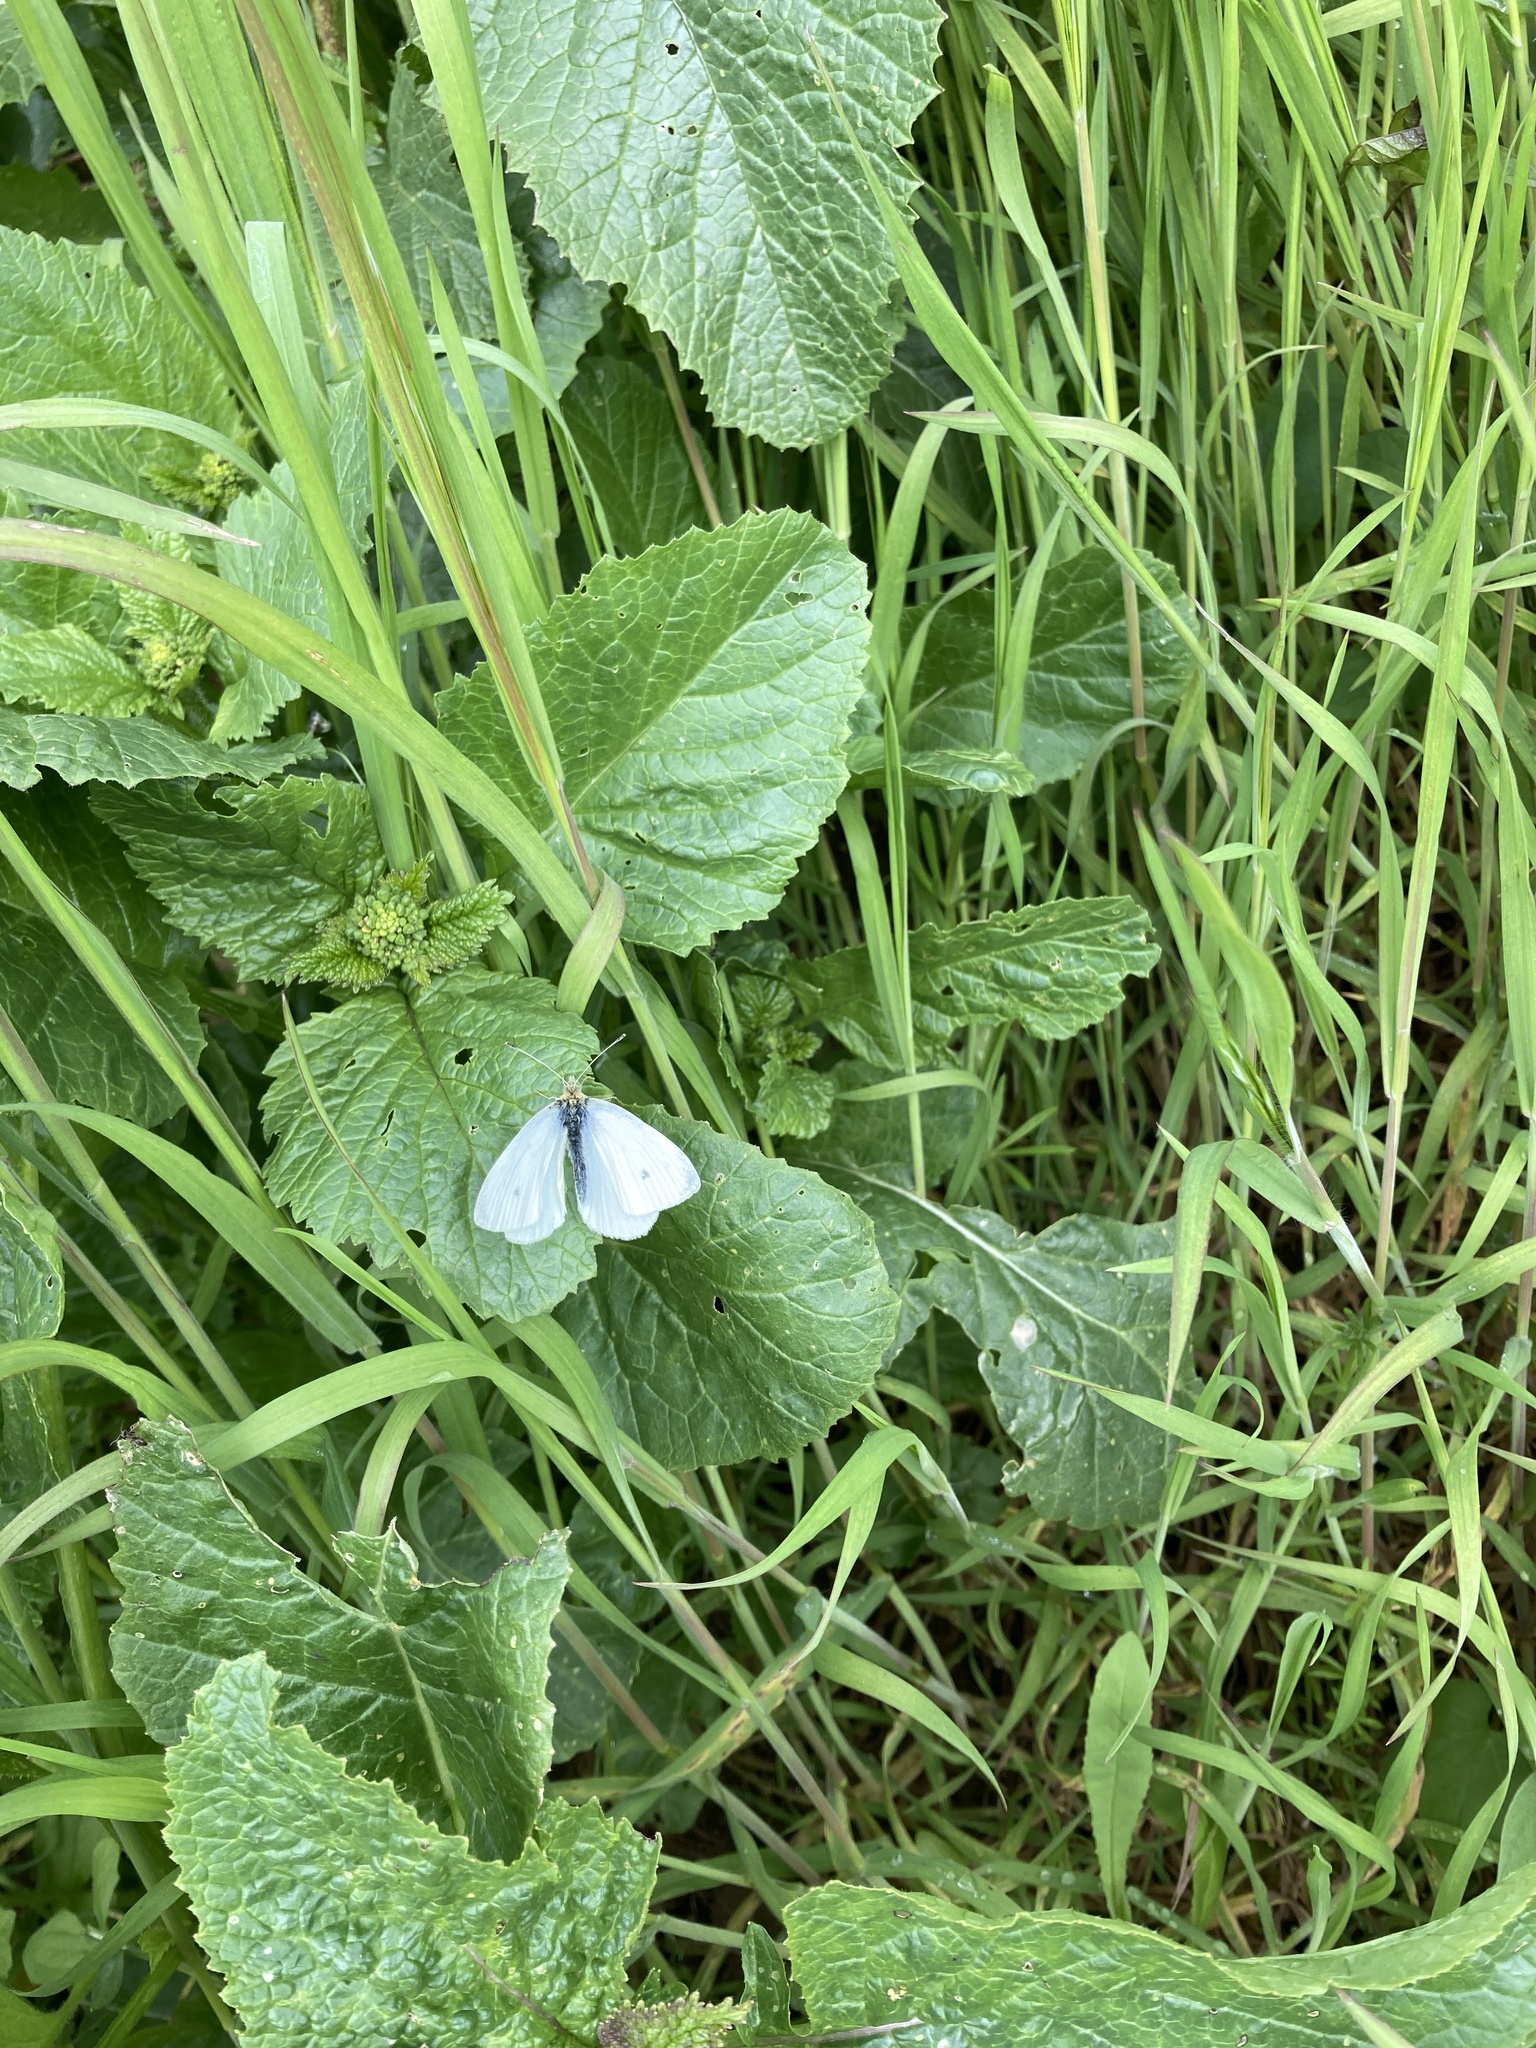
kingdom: Animalia
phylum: Arthropoda
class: Insecta
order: Lepidoptera
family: Pieridae
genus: Pieris
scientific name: Pieris rapae
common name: Small white
